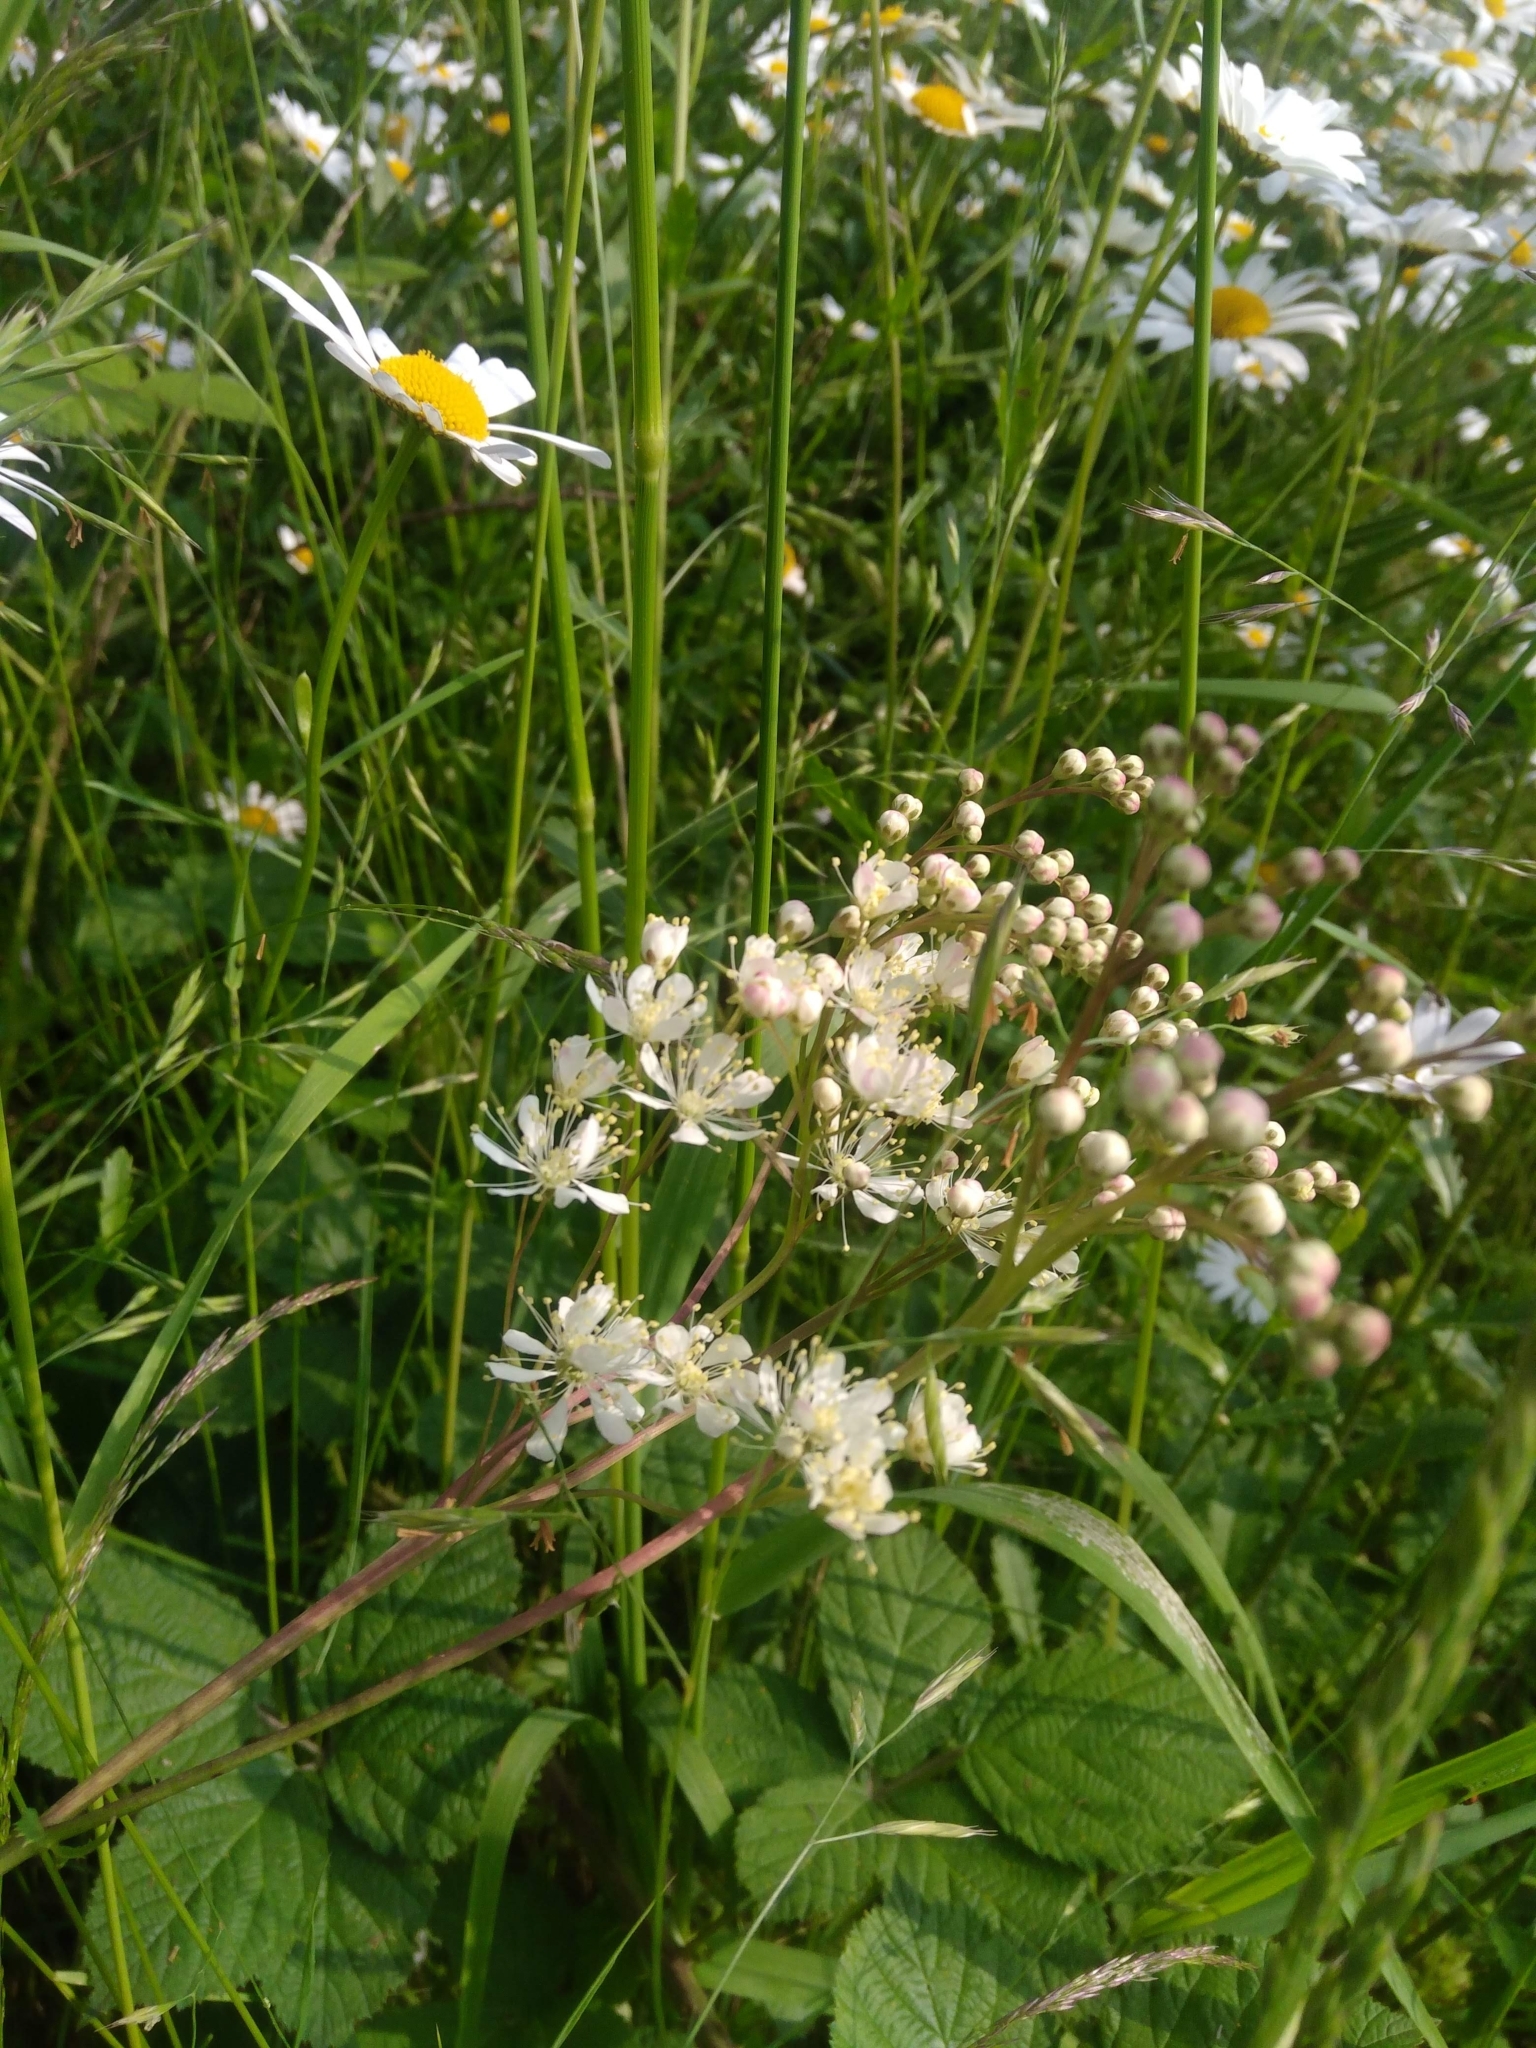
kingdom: Plantae
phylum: Tracheophyta
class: Magnoliopsida
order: Rosales
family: Rosaceae
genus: Filipendula
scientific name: Filipendula vulgaris
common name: Dropwort
